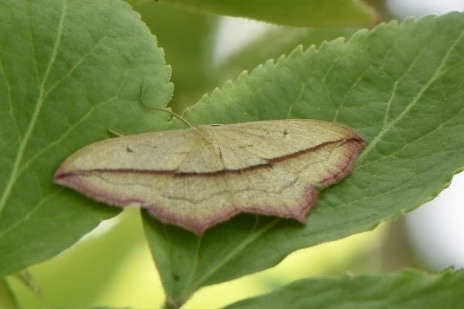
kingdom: Animalia
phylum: Arthropoda
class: Insecta
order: Lepidoptera
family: Geometridae
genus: Timandra
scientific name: Timandra comae
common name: Blood-vein
